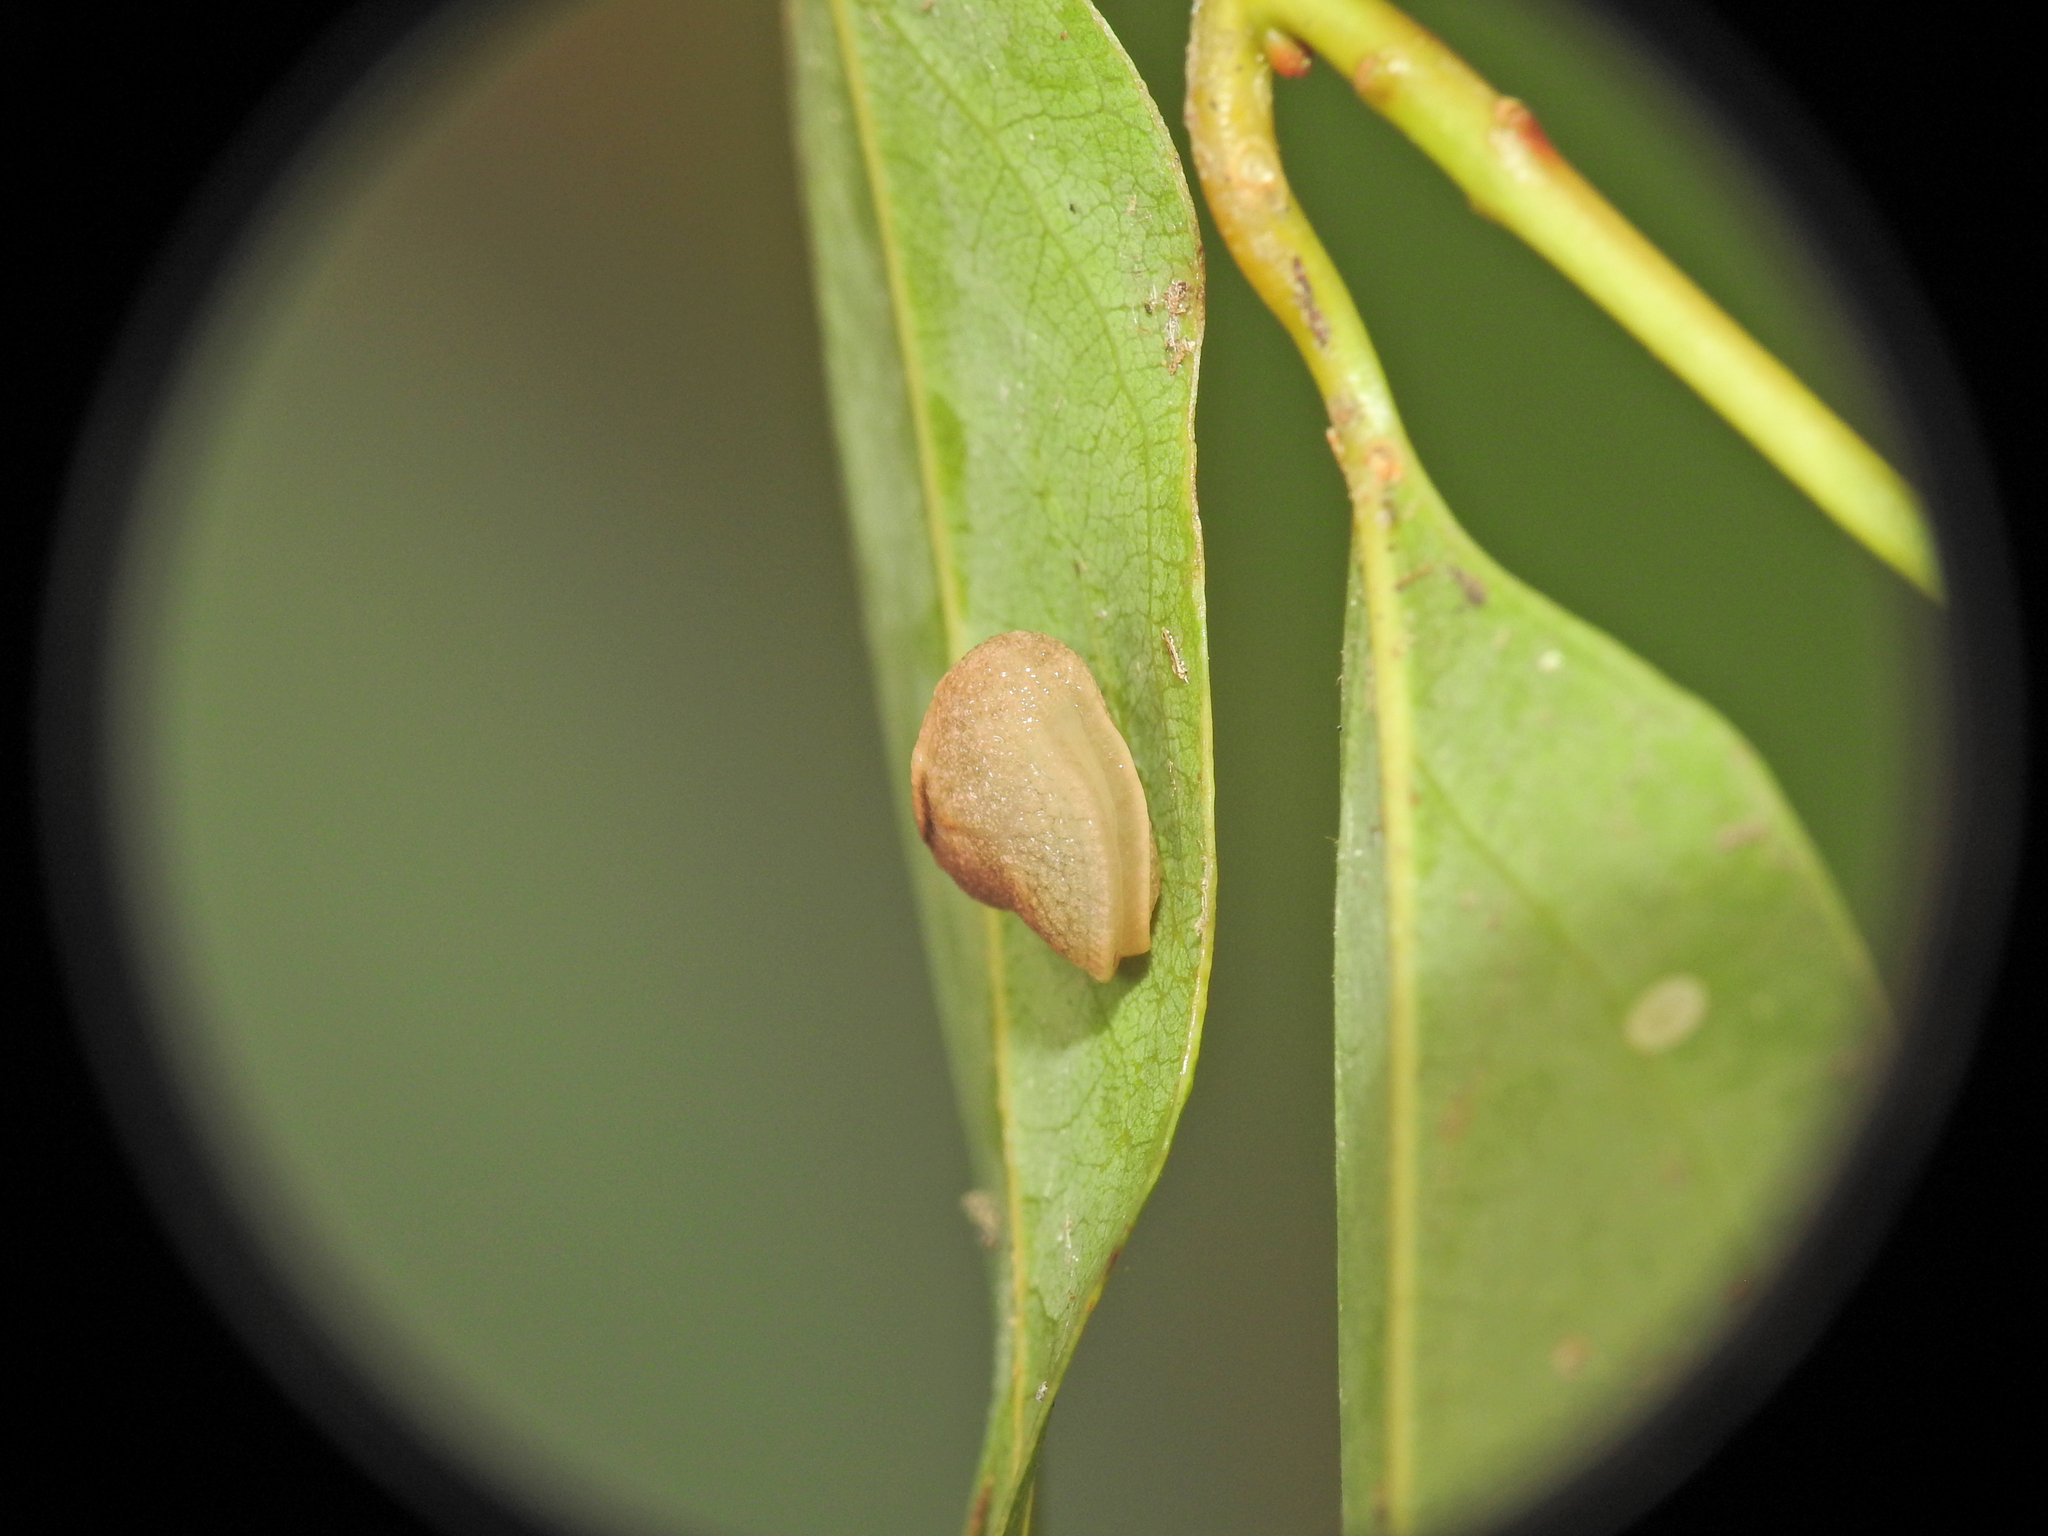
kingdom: Animalia
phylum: Mollusca
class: Gastropoda
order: Stylommatophora
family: Helicarionidae
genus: Ubiquitarion
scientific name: Ubiquitarion iridis
